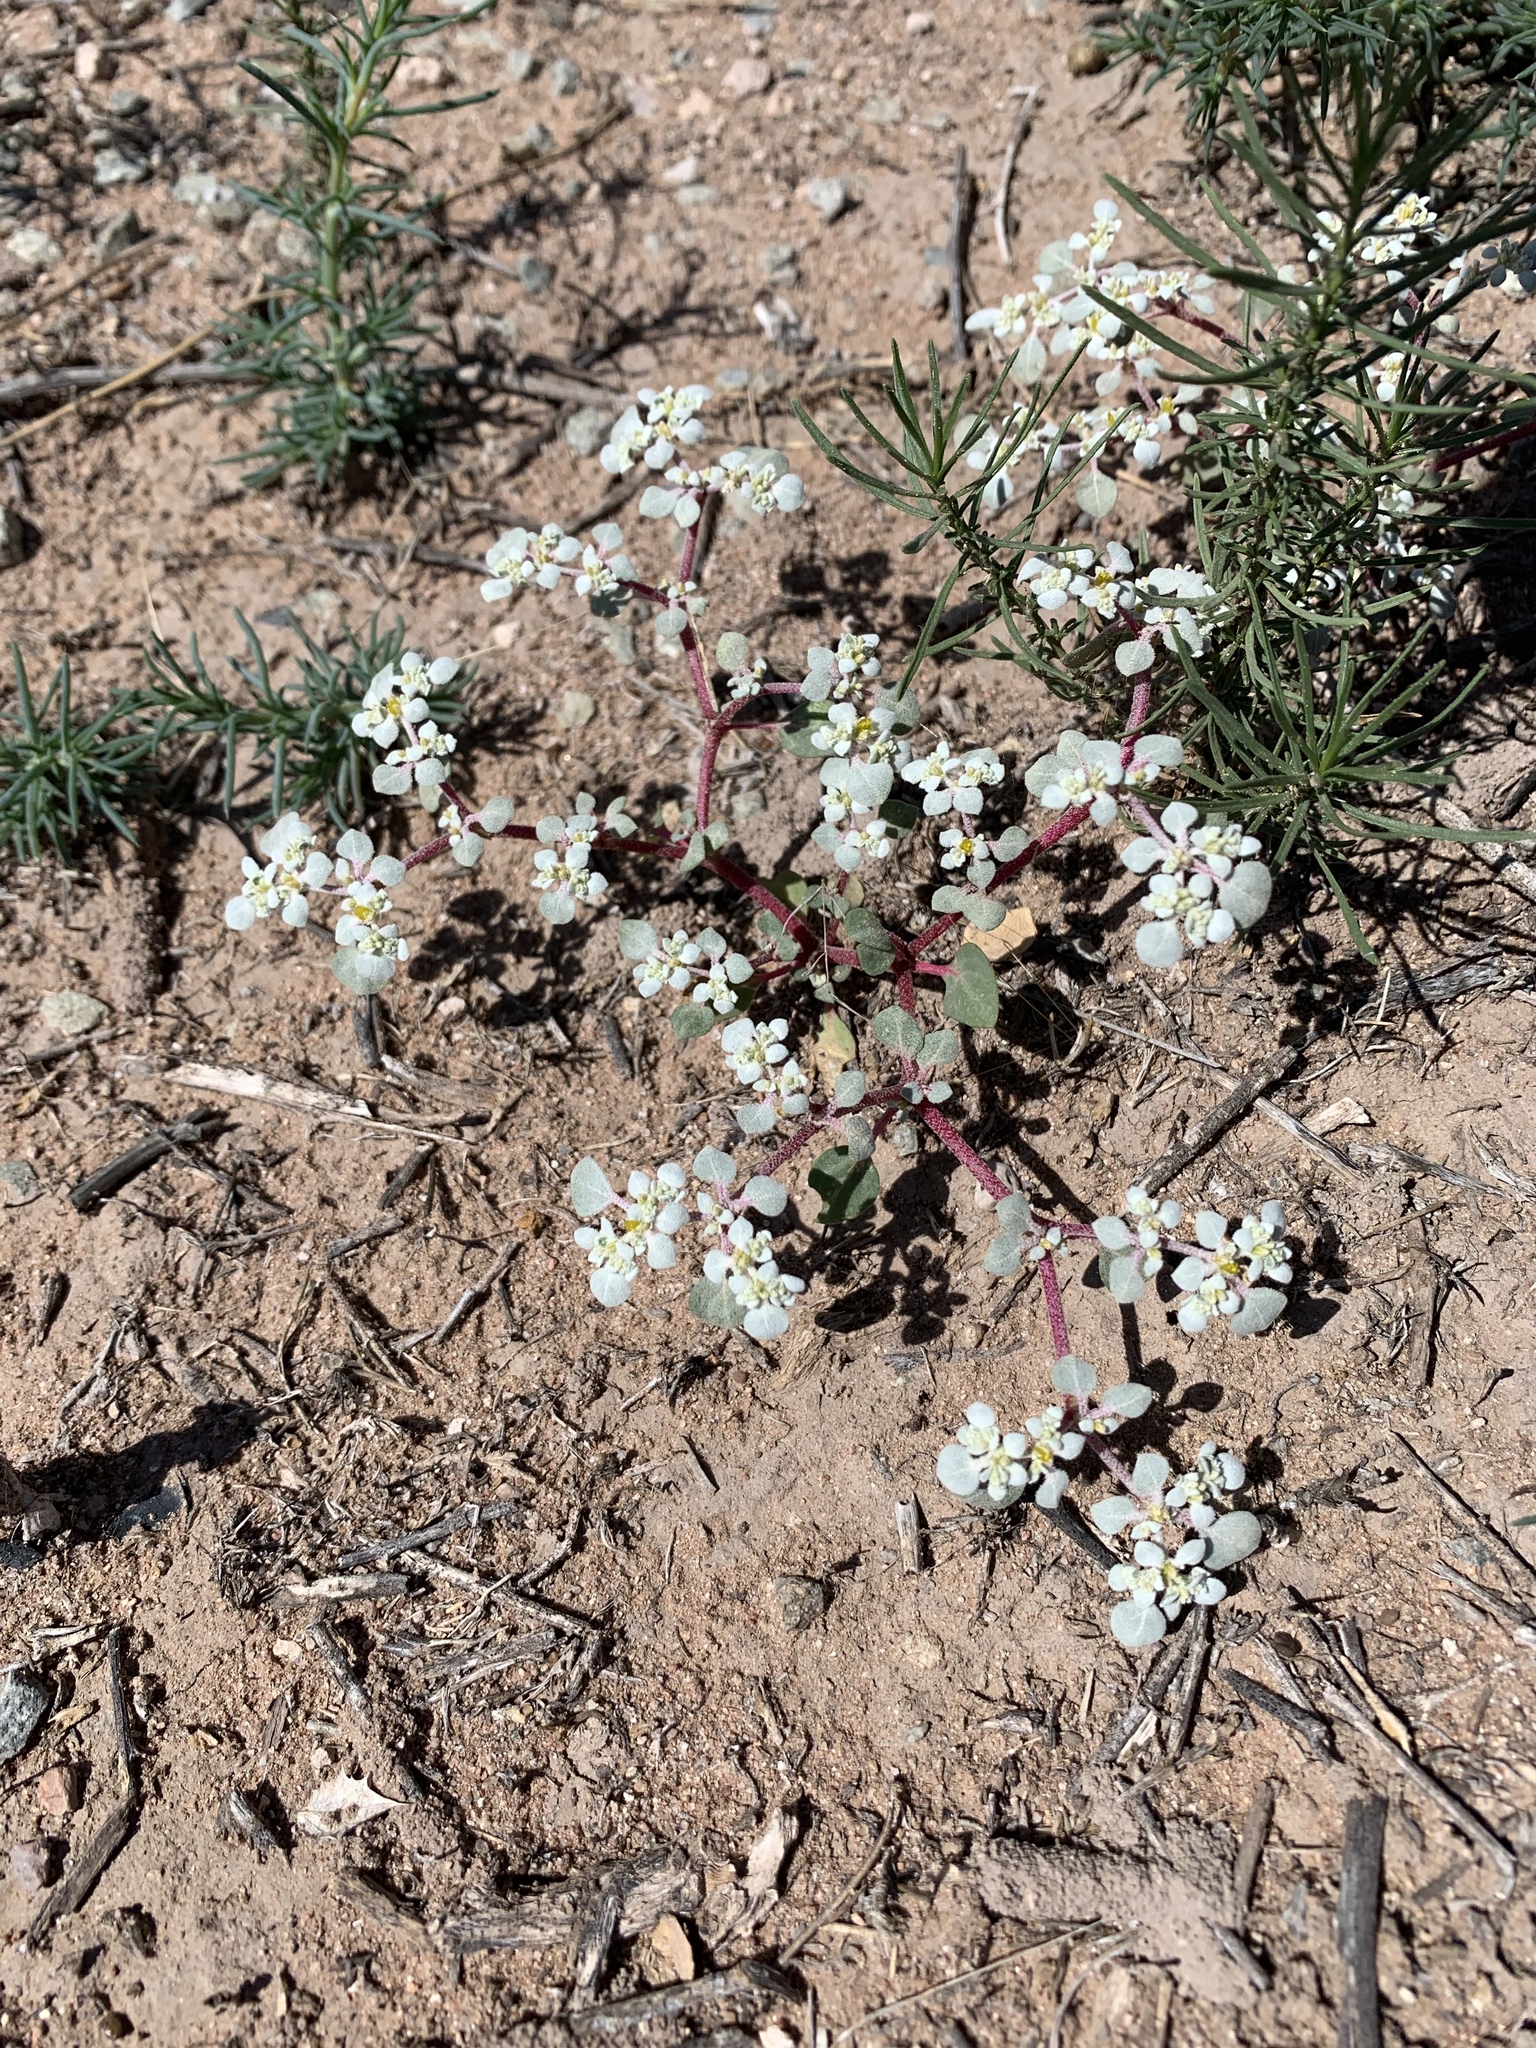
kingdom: Plantae
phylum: Tracheophyta
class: Magnoliopsida
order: Caryophyllales
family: Amaranthaceae
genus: Tidestromia
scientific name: Tidestromia lanuginosa
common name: Woolly tidestromia
